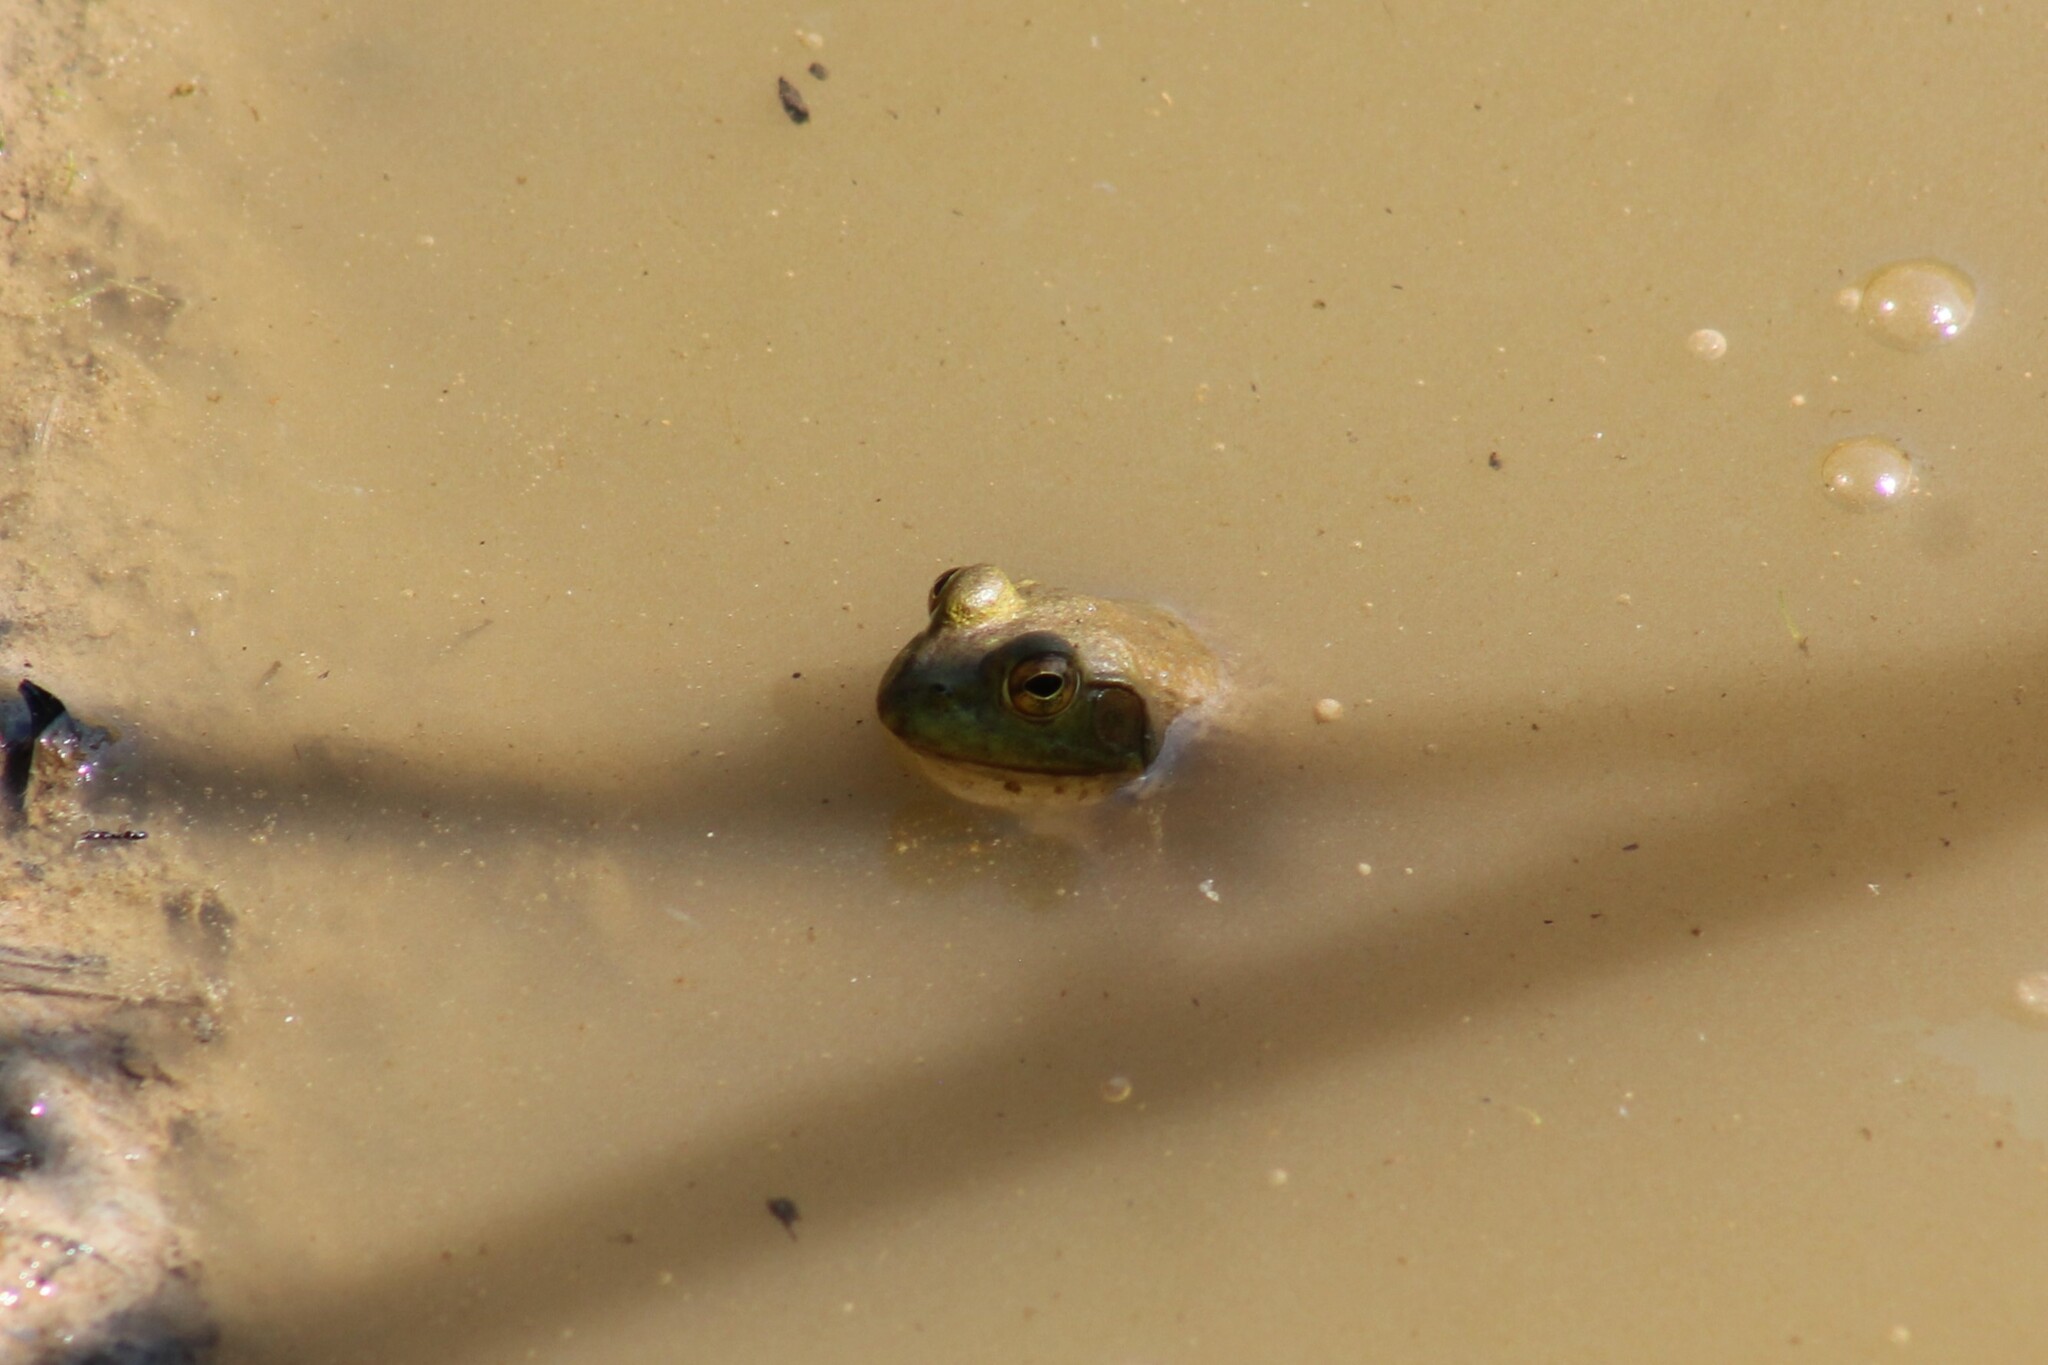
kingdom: Animalia
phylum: Chordata
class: Amphibia
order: Anura
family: Ranidae
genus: Lithobates
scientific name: Lithobates catesbeianus
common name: American bullfrog
